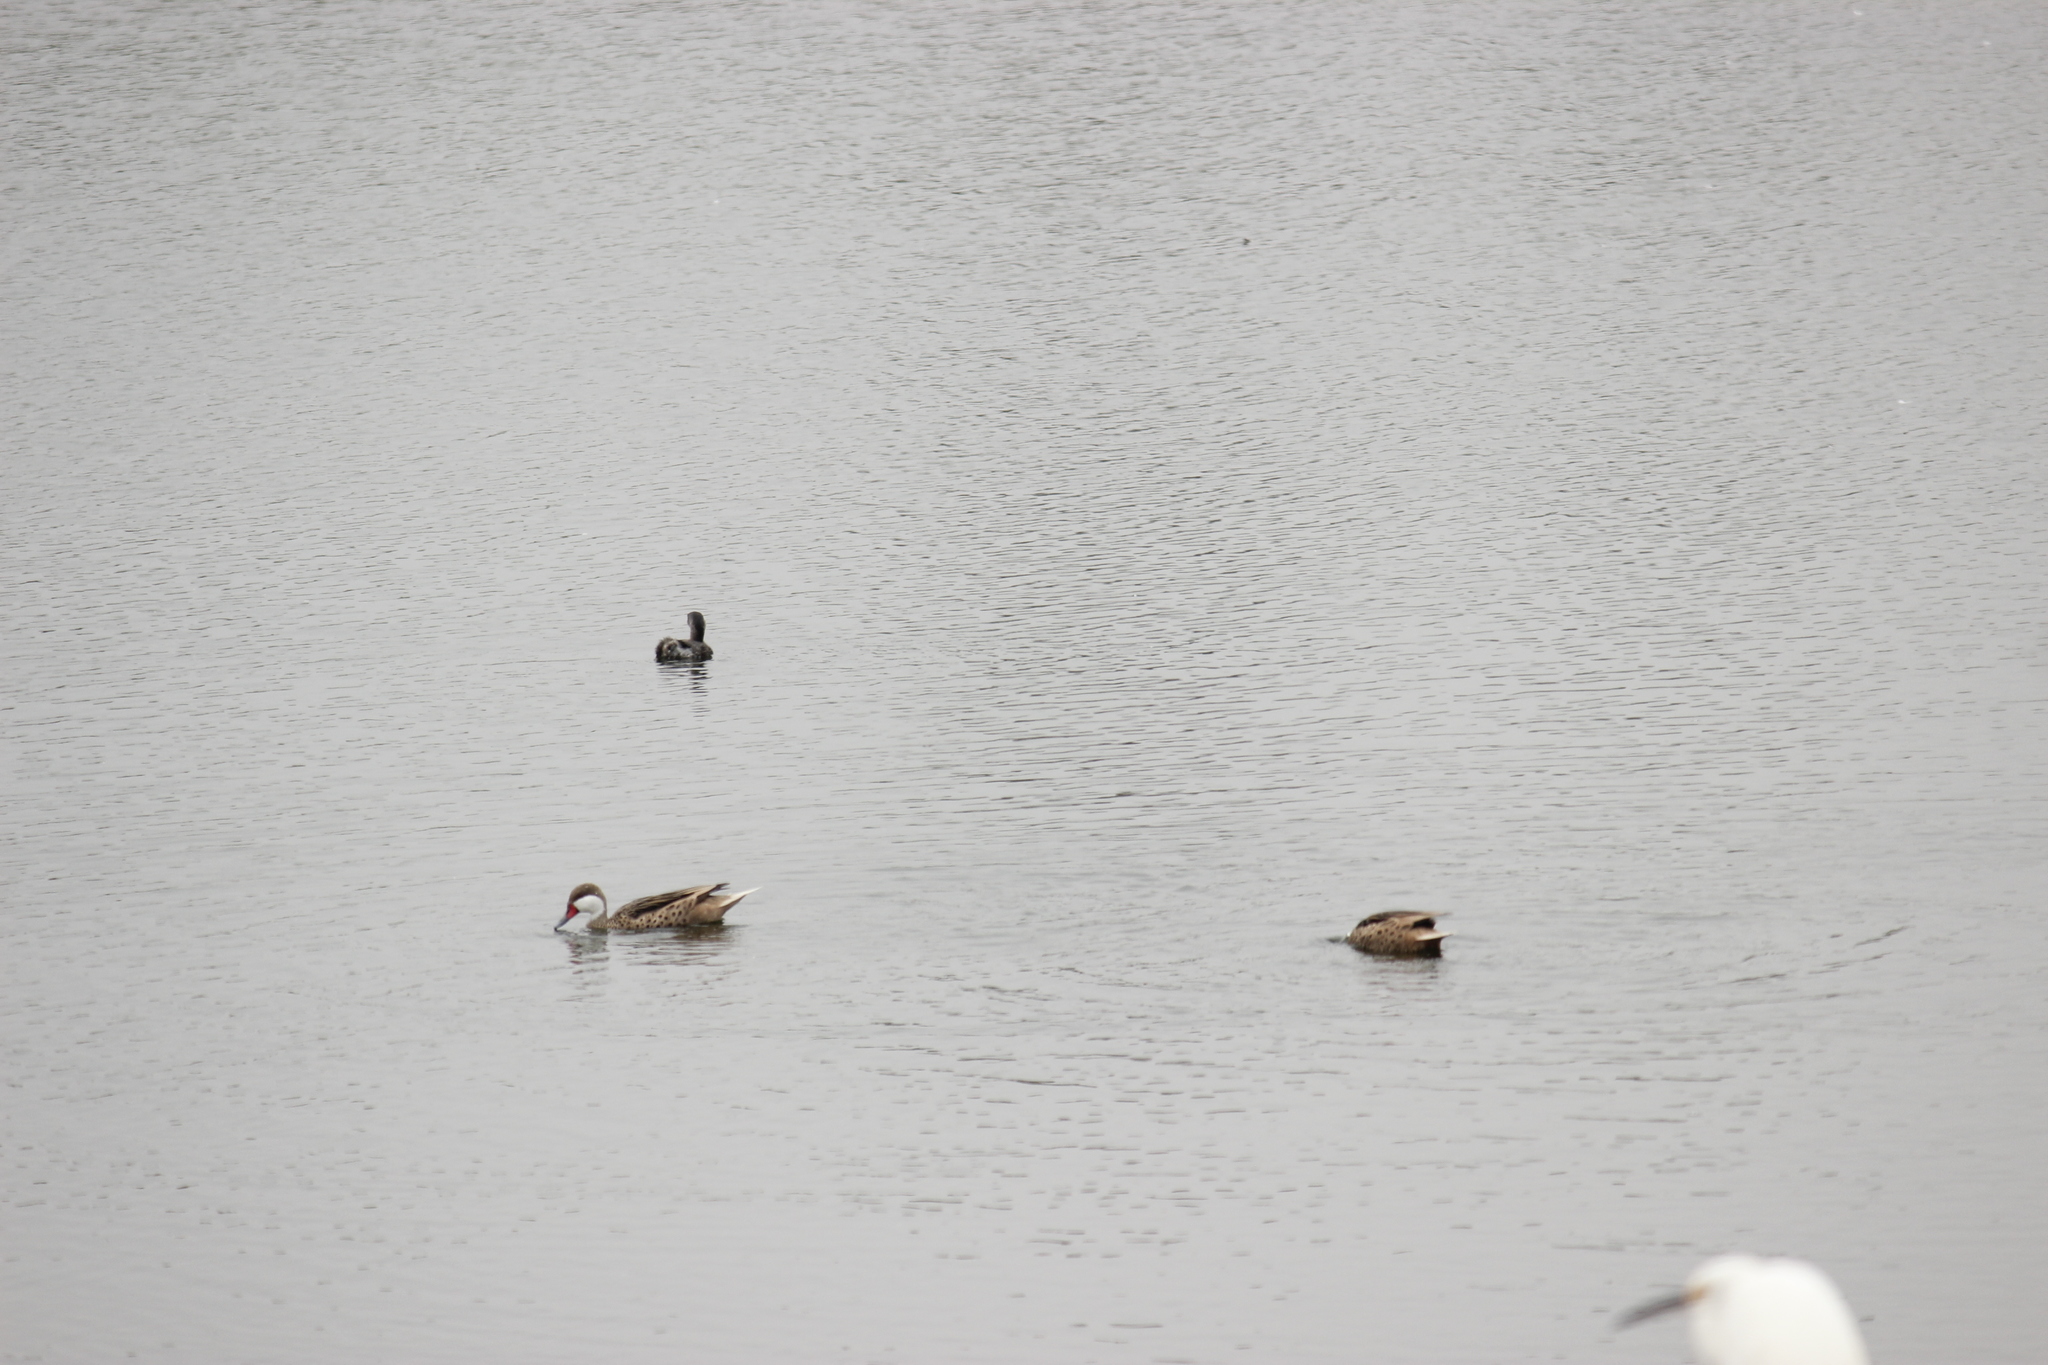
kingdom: Animalia
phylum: Chordata
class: Aves
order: Anseriformes
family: Anatidae
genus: Anas
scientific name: Anas bahamensis
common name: White-cheeked pintail
